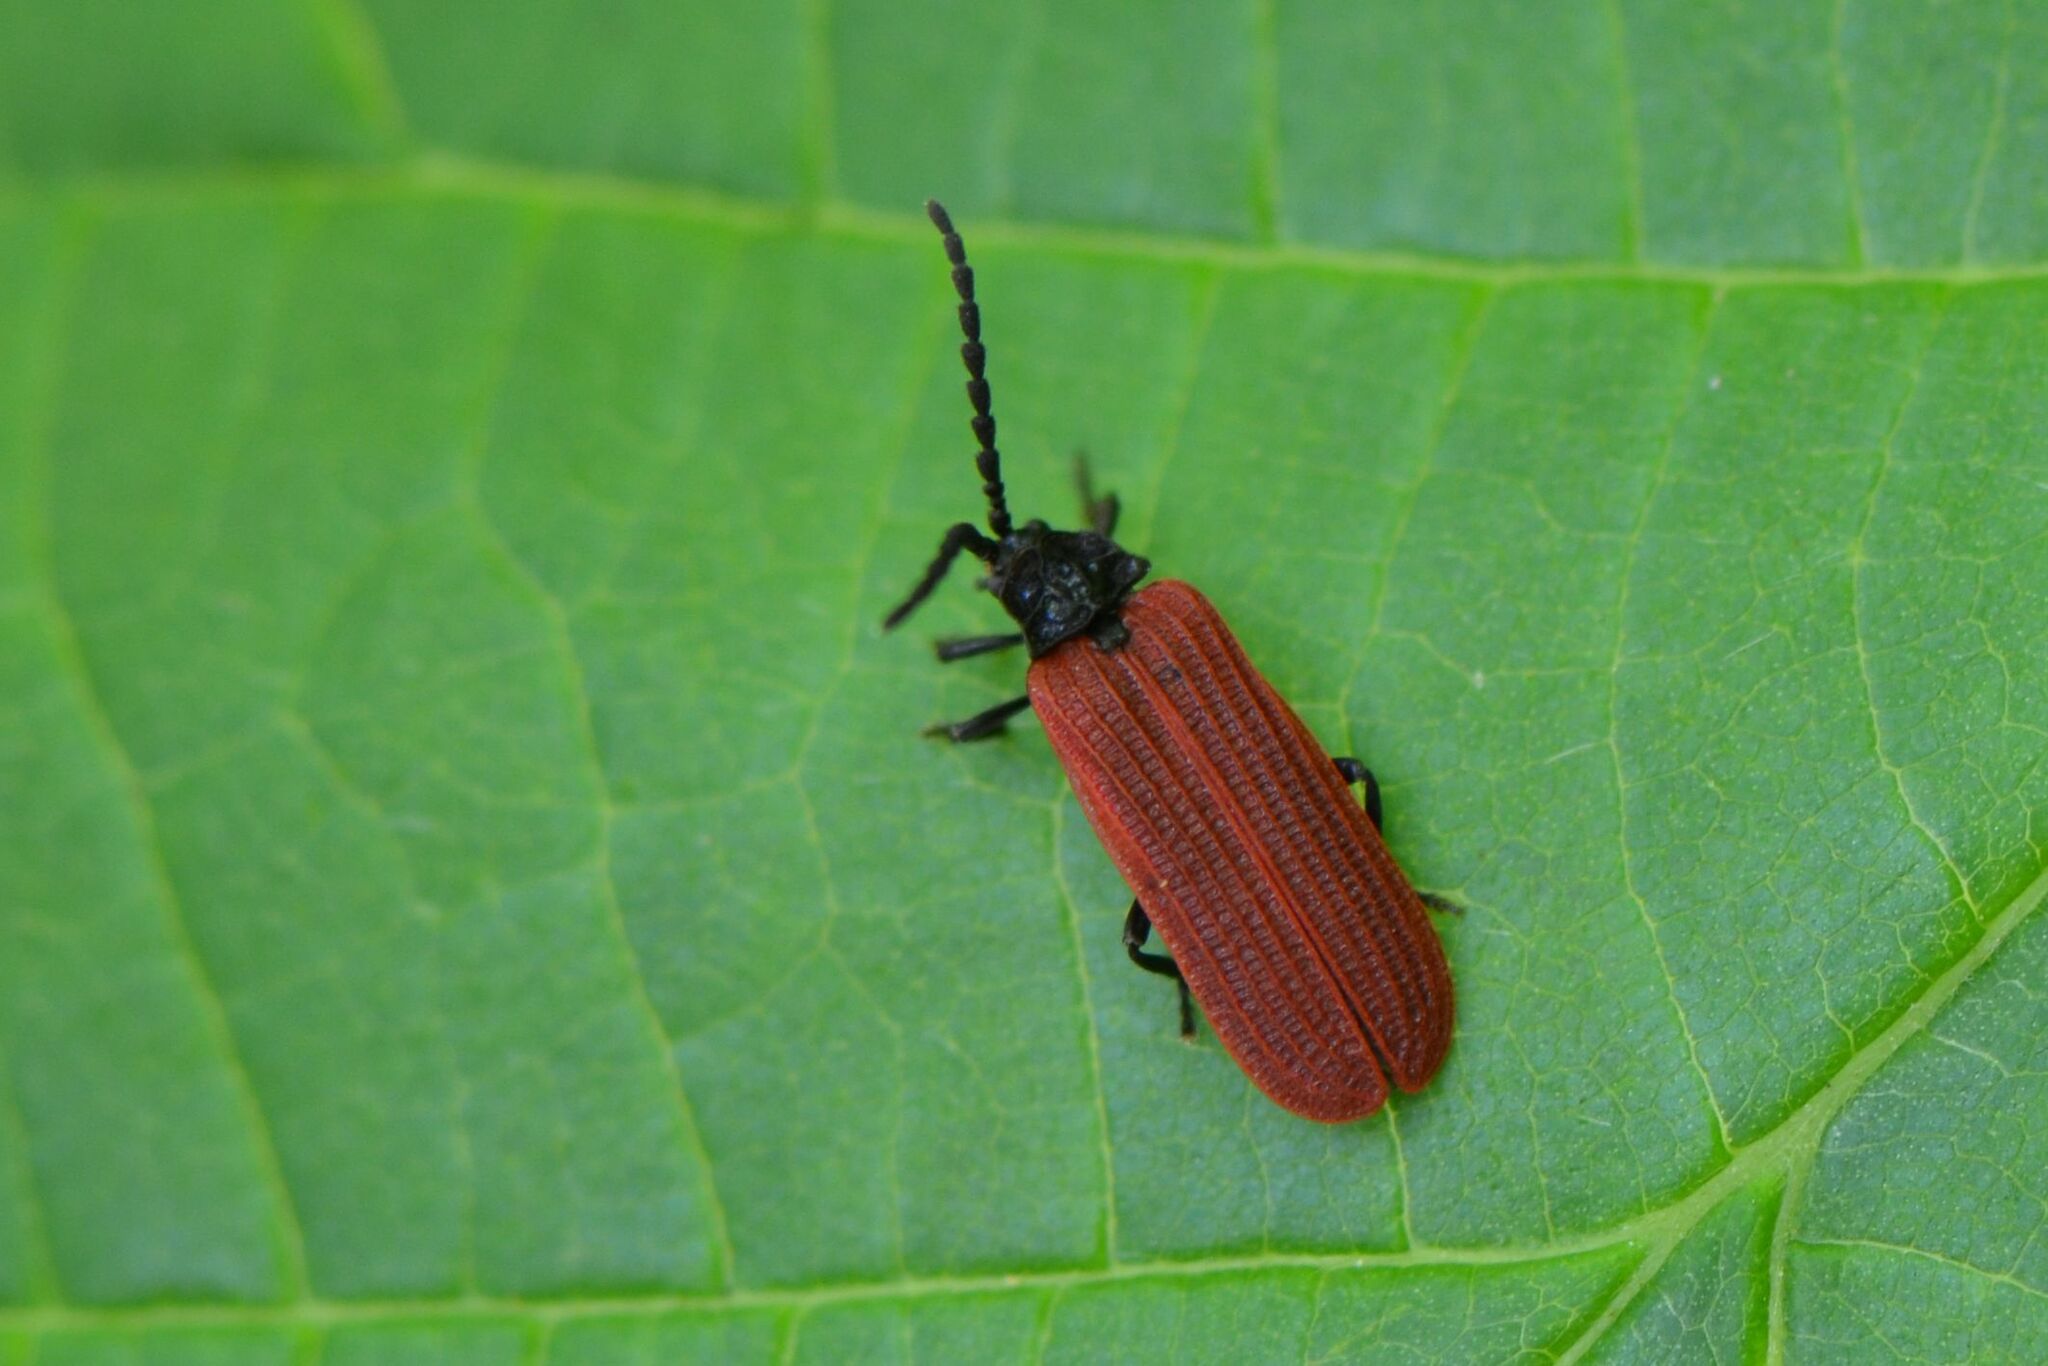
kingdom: Animalia
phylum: Arthropoda
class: Insecta
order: Coleoptera
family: Lycidae
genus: Pyropterus
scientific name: Pyropterus nigroruber
